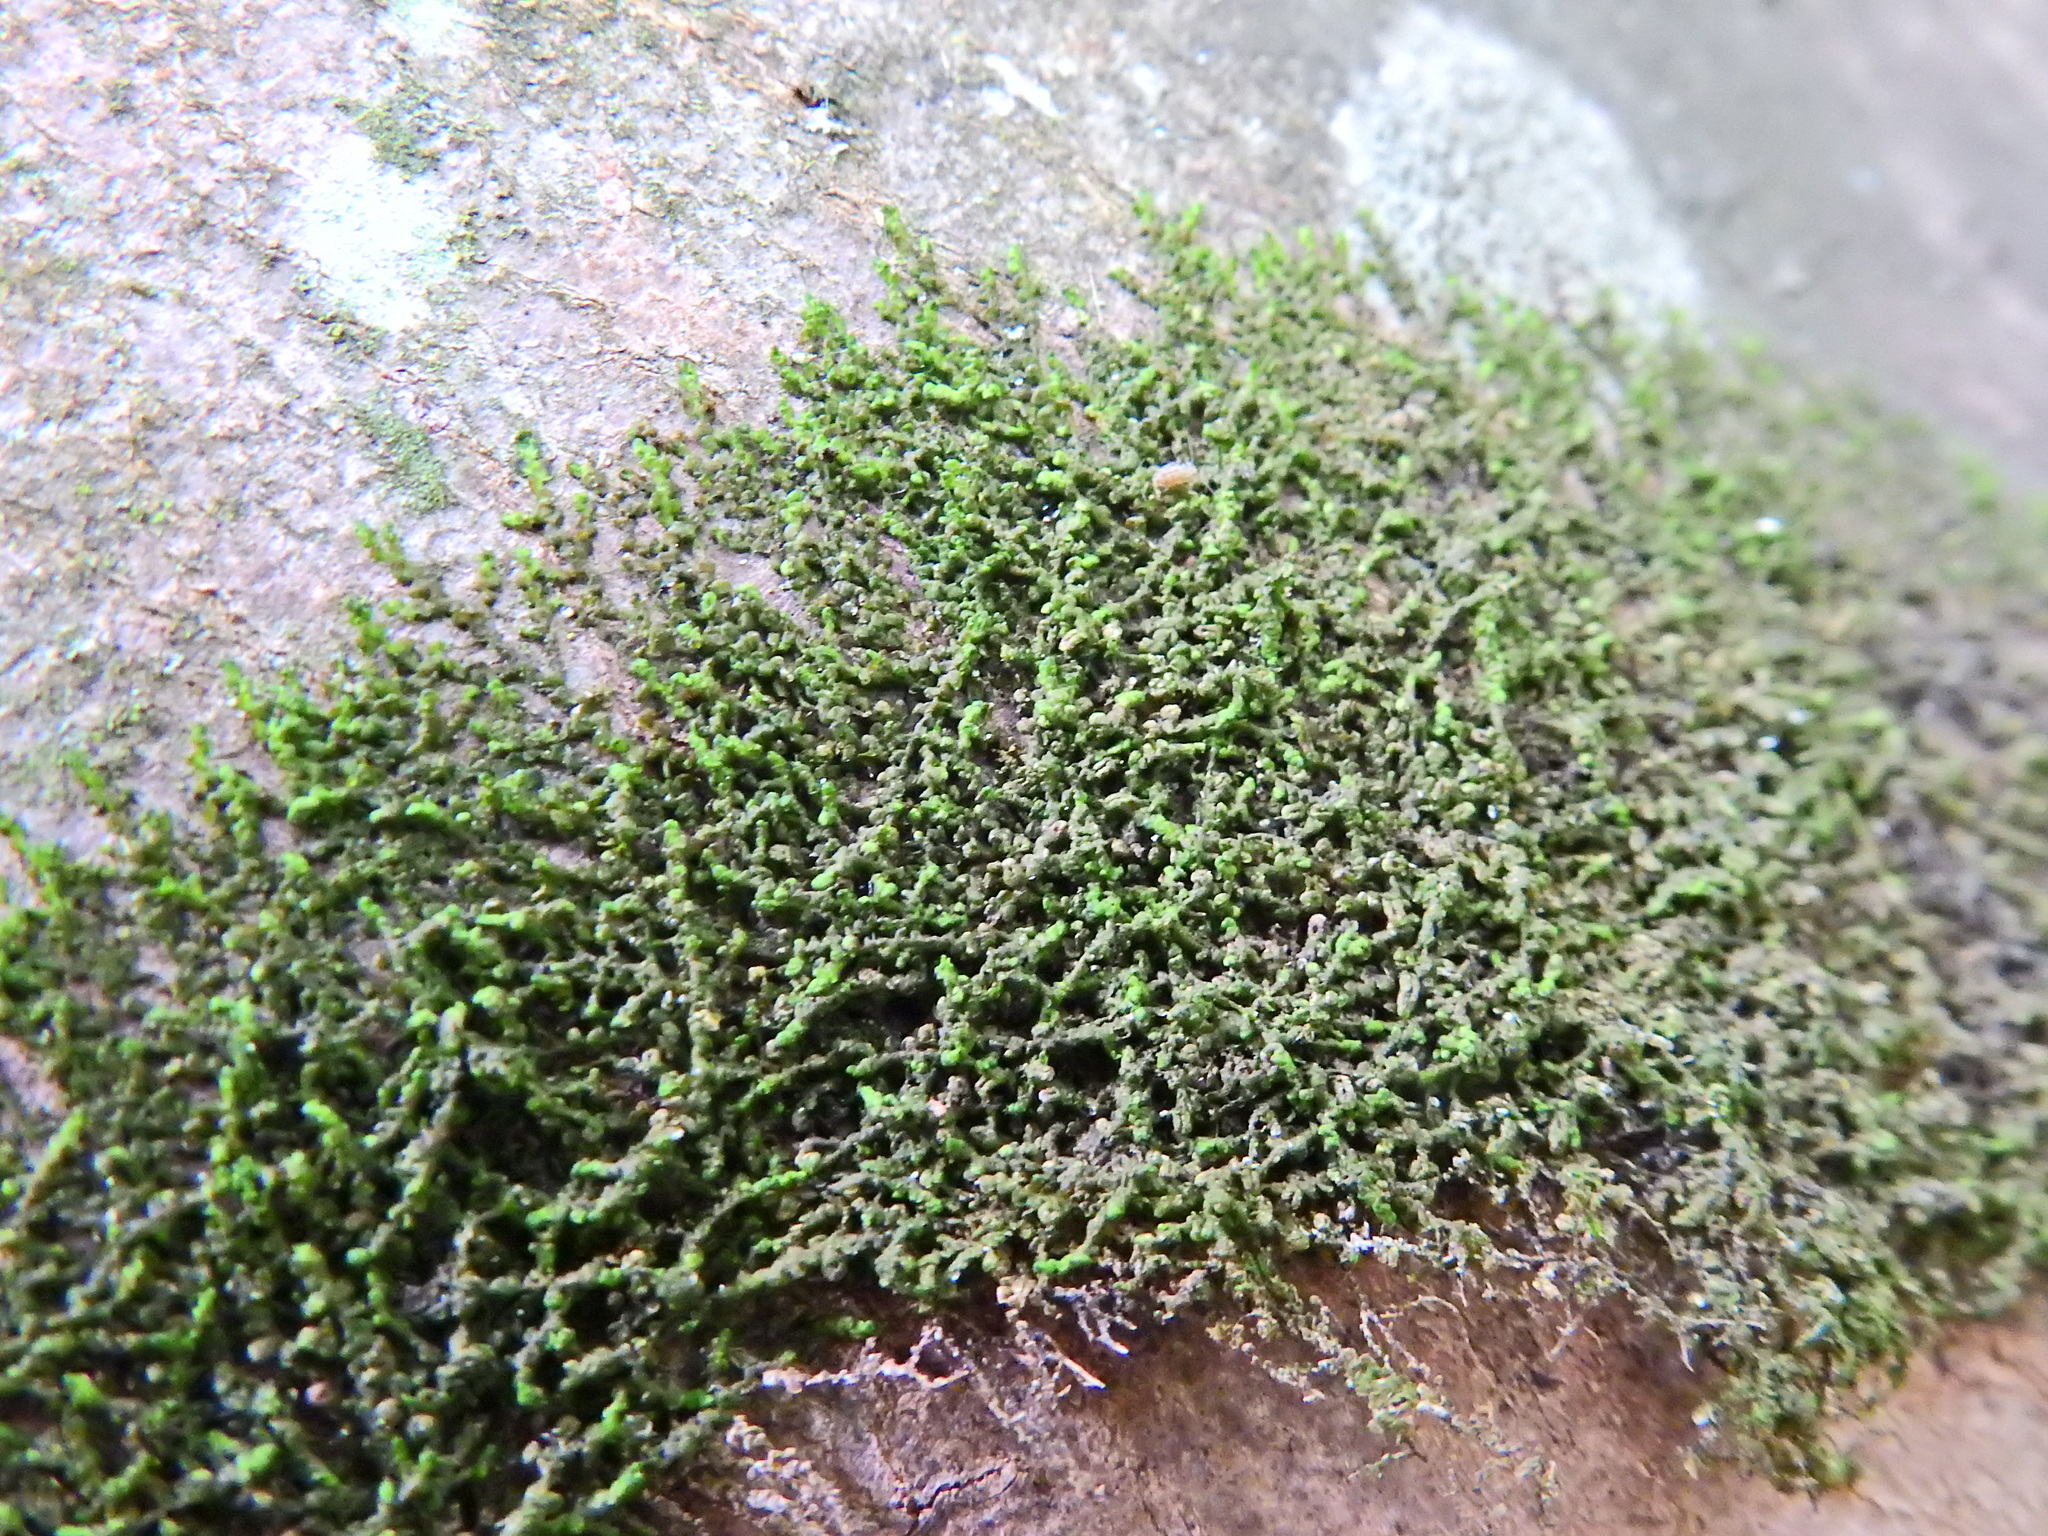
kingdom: Plantae
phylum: Marchantiophyta
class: Jungermanniopsida
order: Porellales
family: Frullaniaceae
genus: Frullania
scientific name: Frullania dilatata
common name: Dilated scalewort
